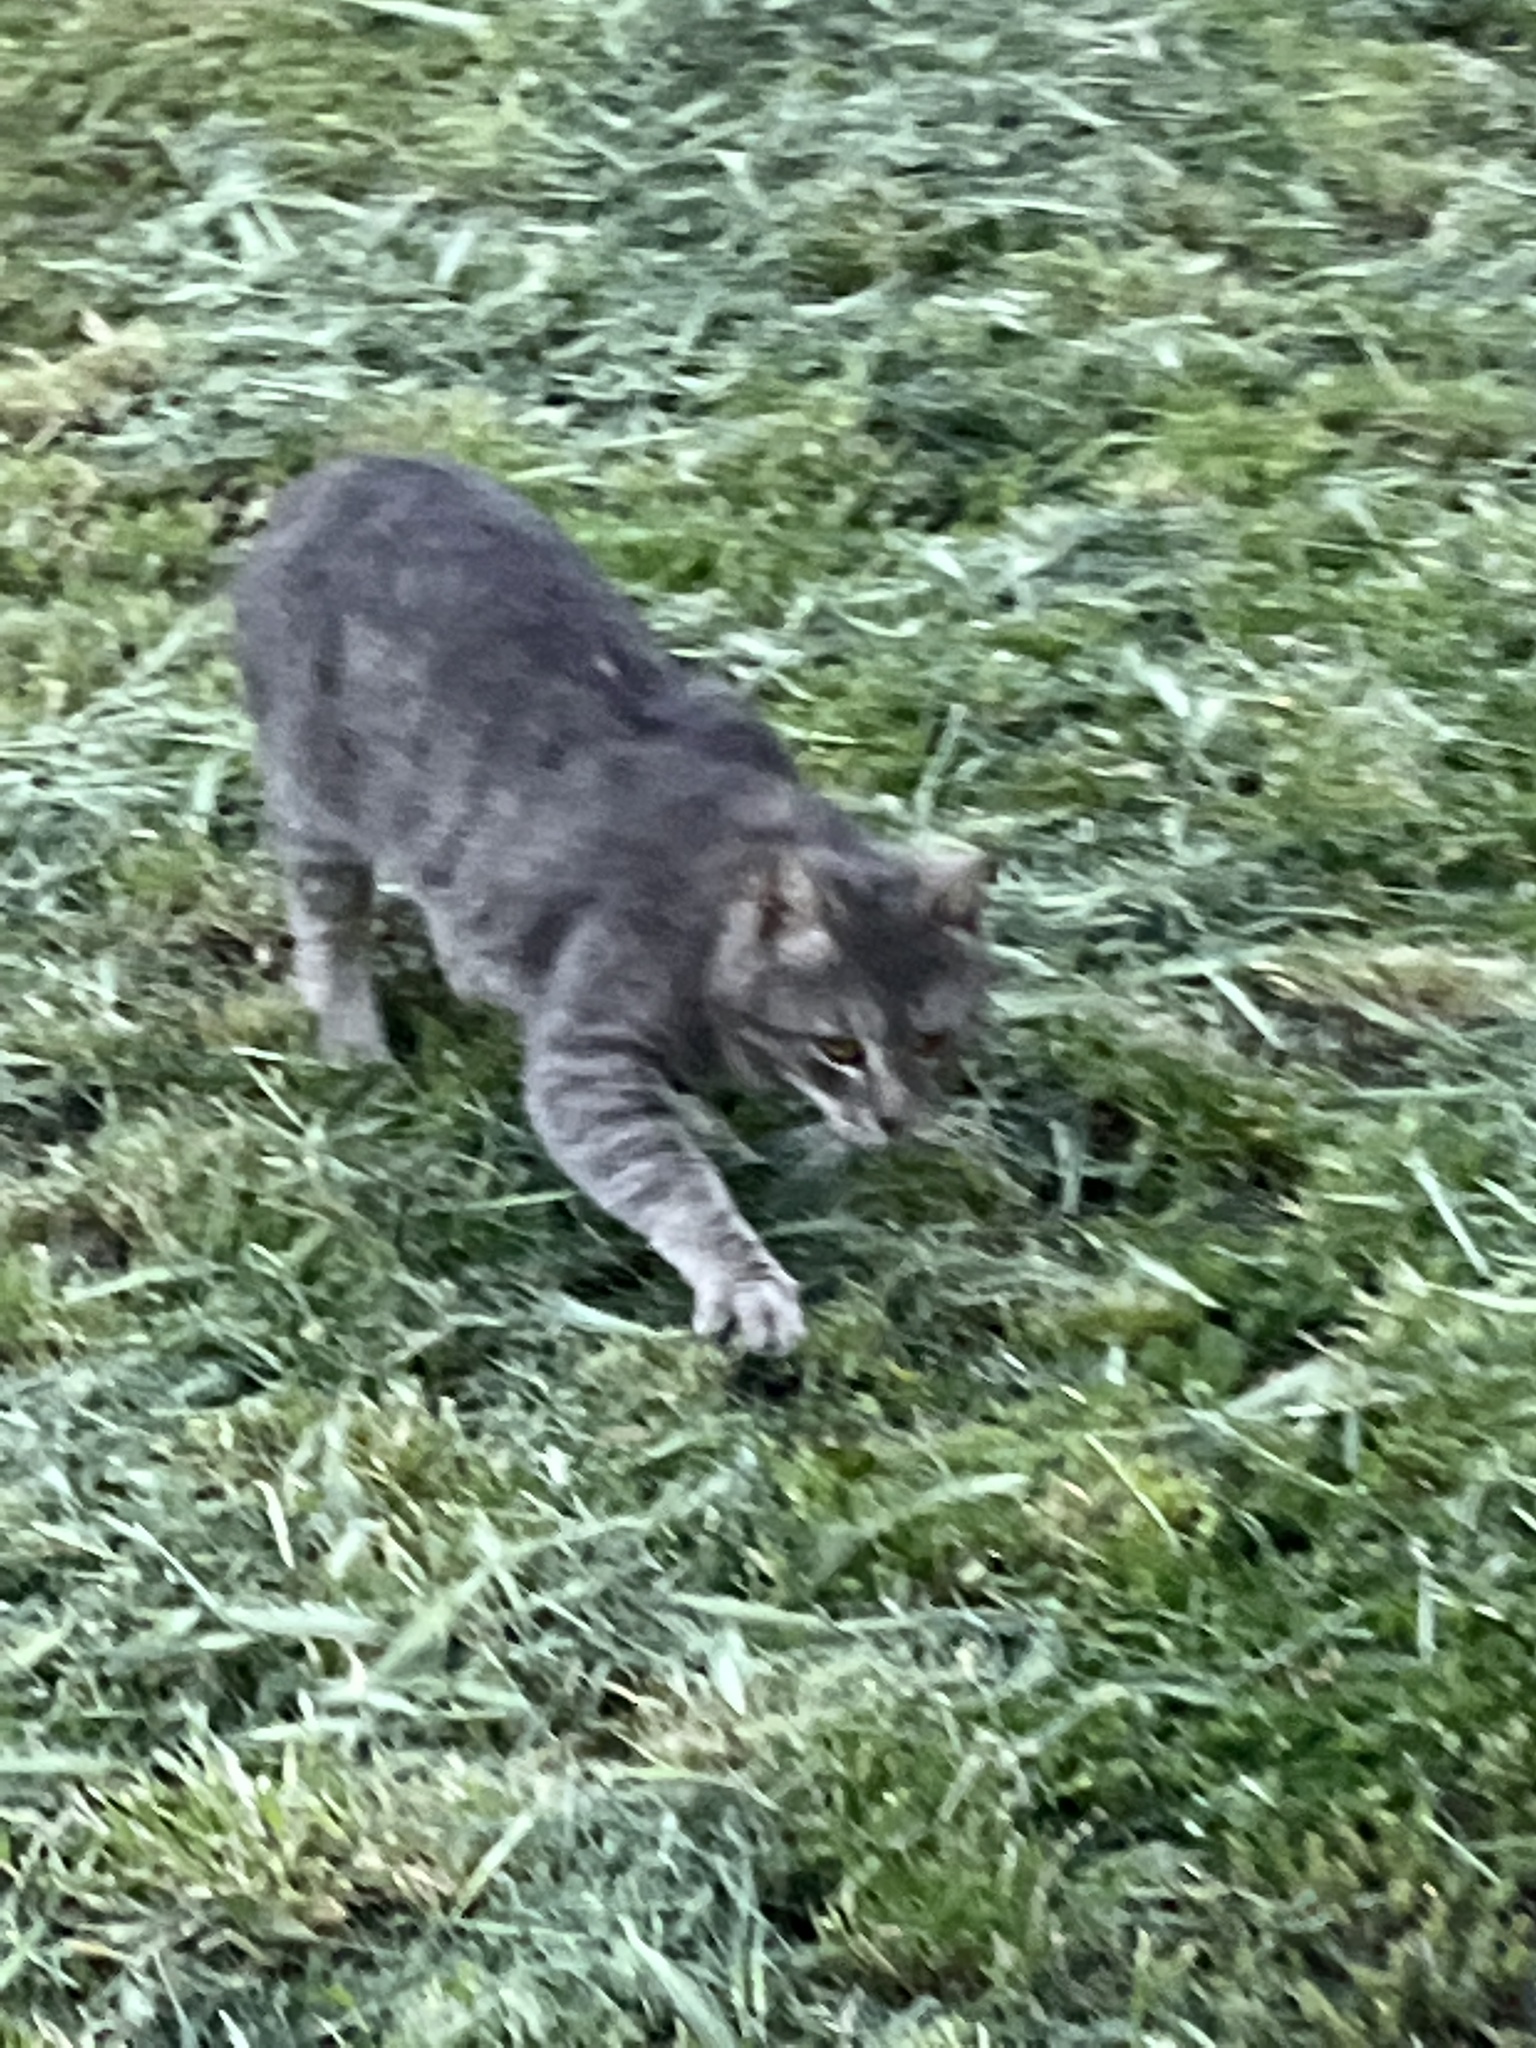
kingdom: Animalia
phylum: Chordata
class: Mammalia
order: Carnivora
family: Felidae
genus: Felis
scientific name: Felis catus
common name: Domestic cat
